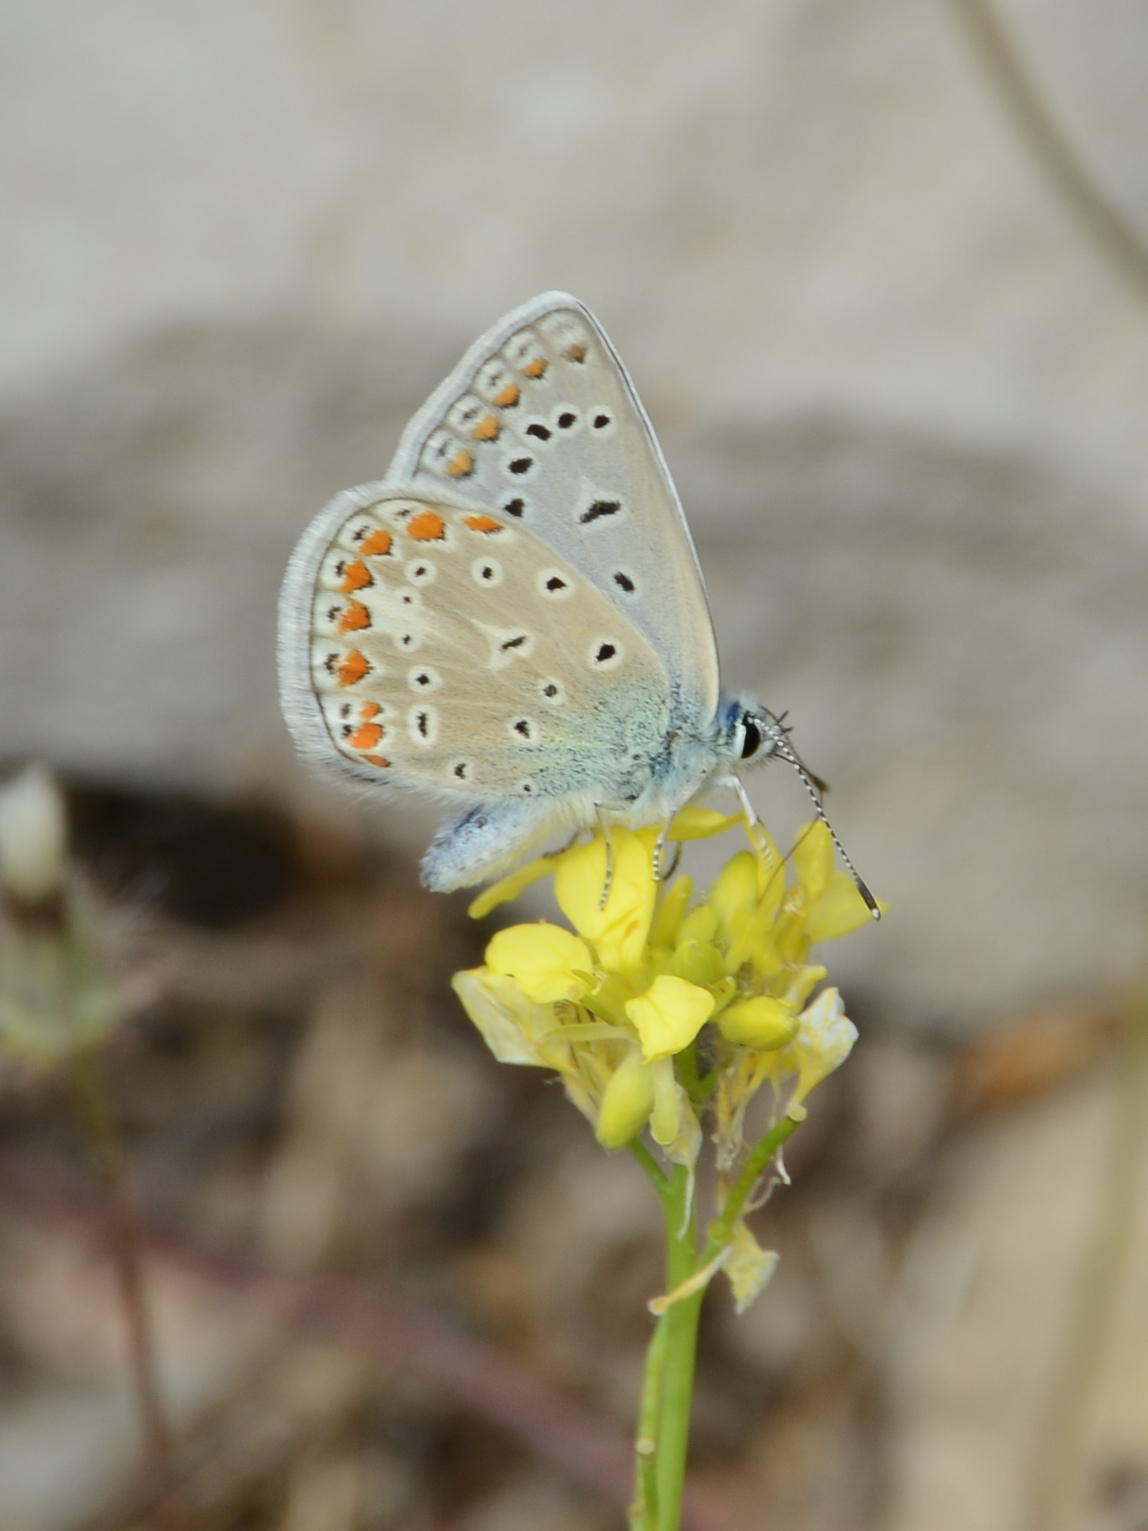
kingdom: Animalia
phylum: Arthropoda
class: Insecta
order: Lepidoptera
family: Lycaenidae
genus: Polyommatus
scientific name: Polyommatus icarus
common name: Common blue
